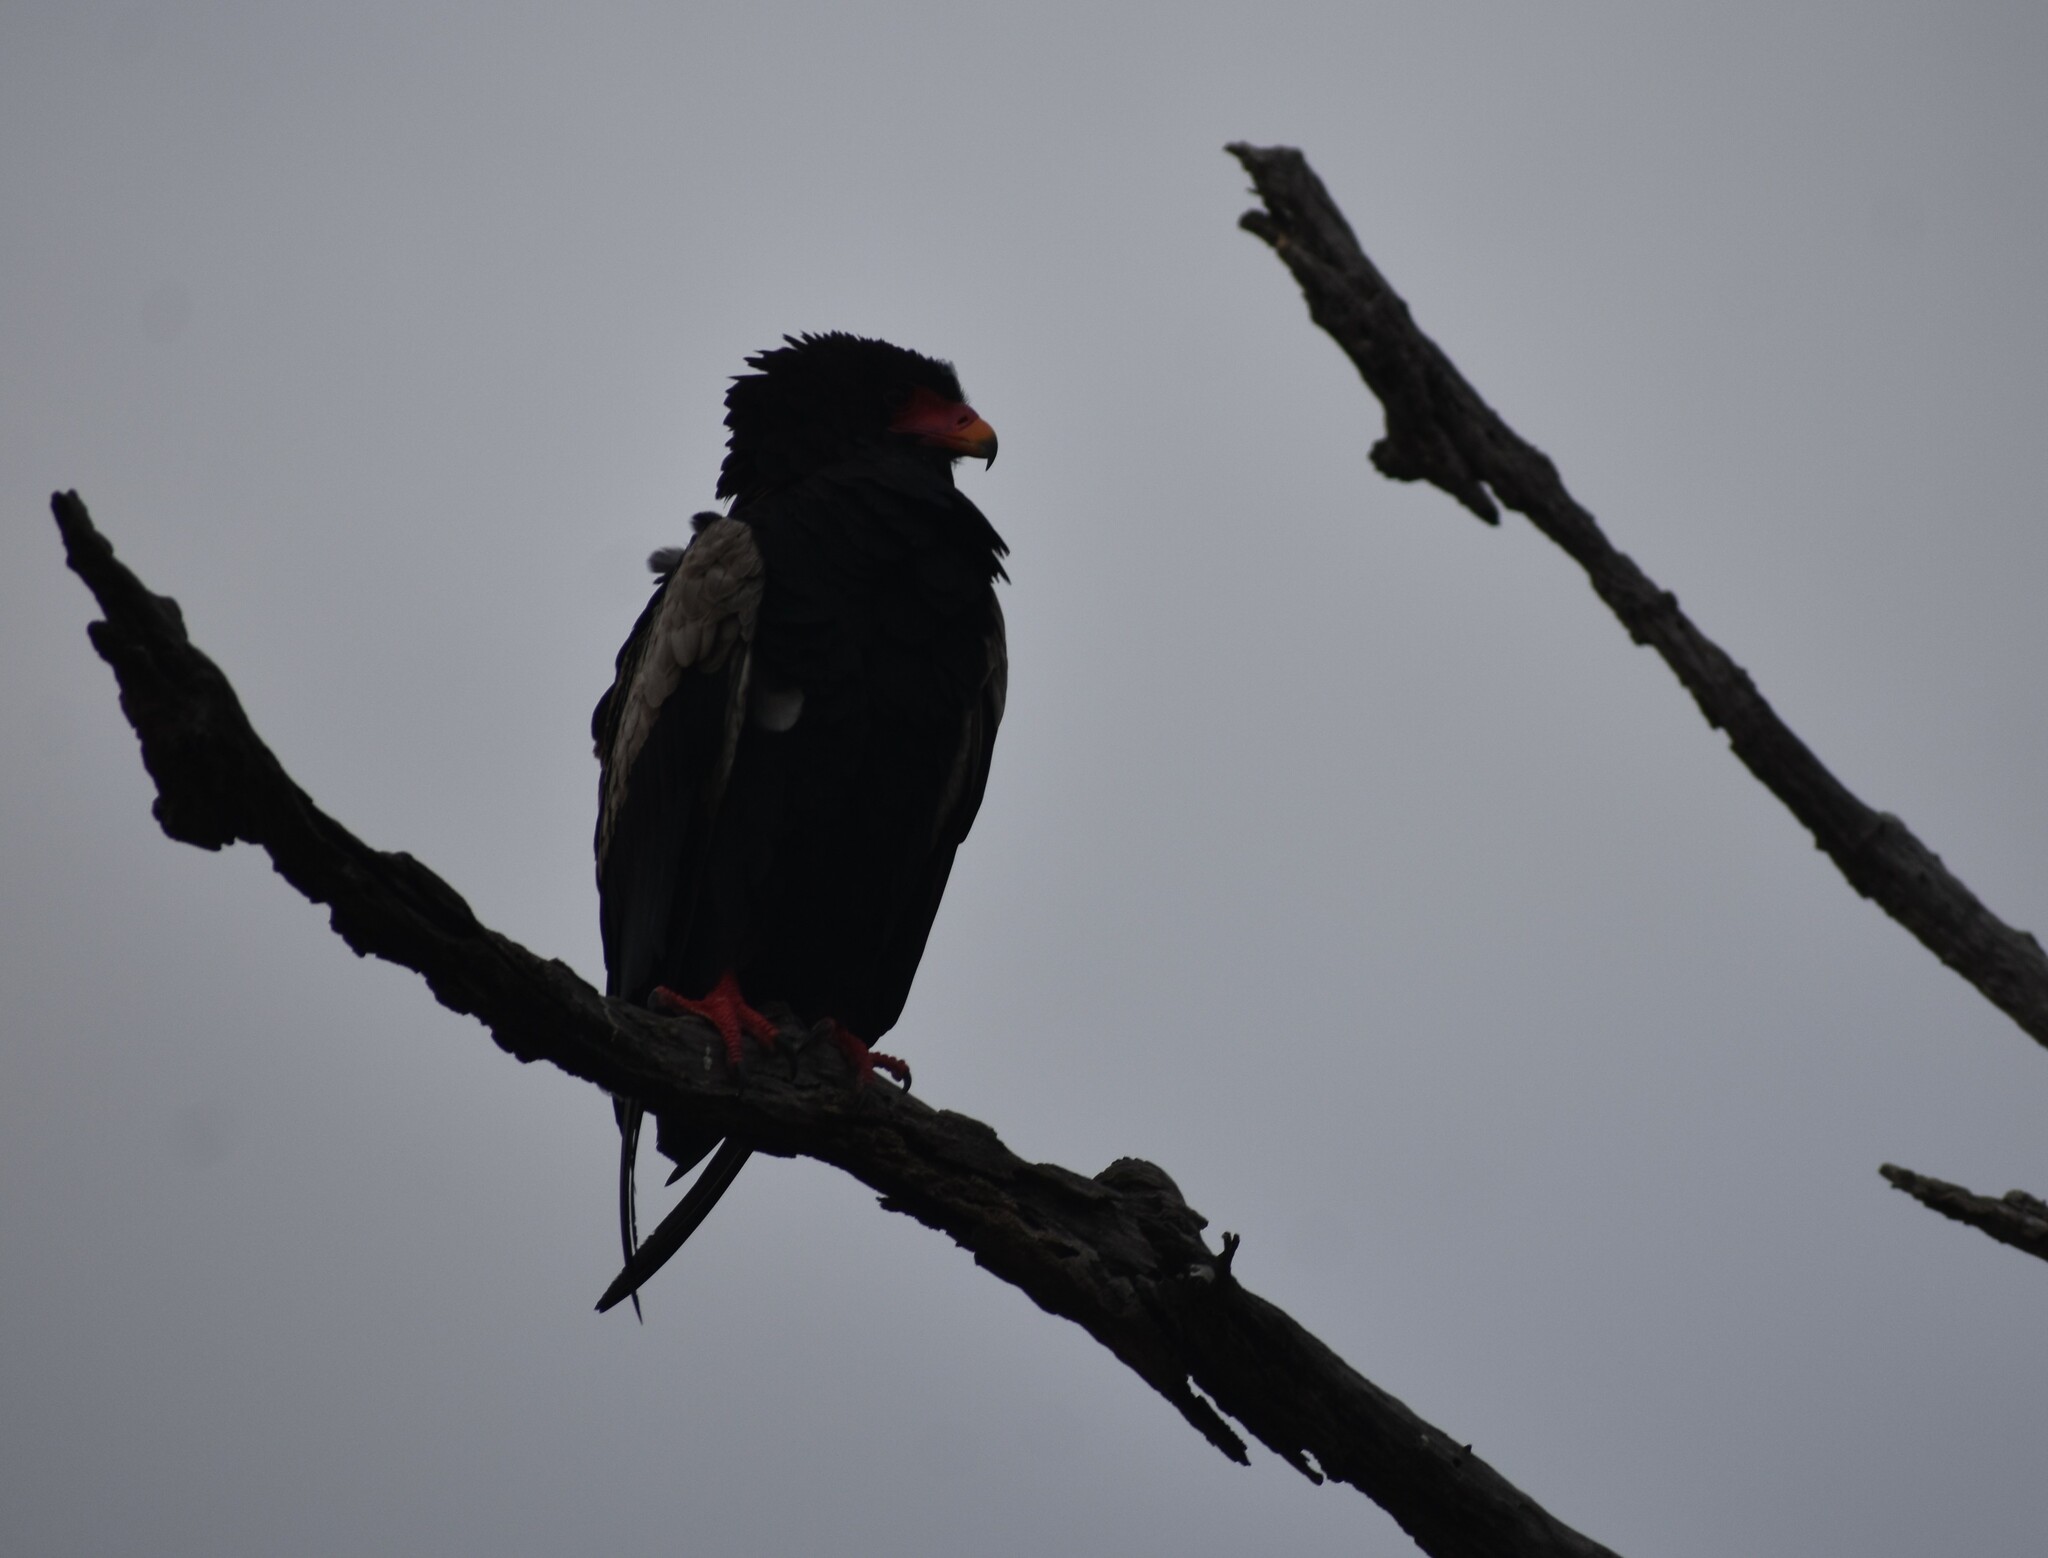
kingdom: Animalia
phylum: Chordata
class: Aves
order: Accipitriformes
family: Accipitridae
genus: Terathopius
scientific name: Terathopius ecaudatus
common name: Bateleur
